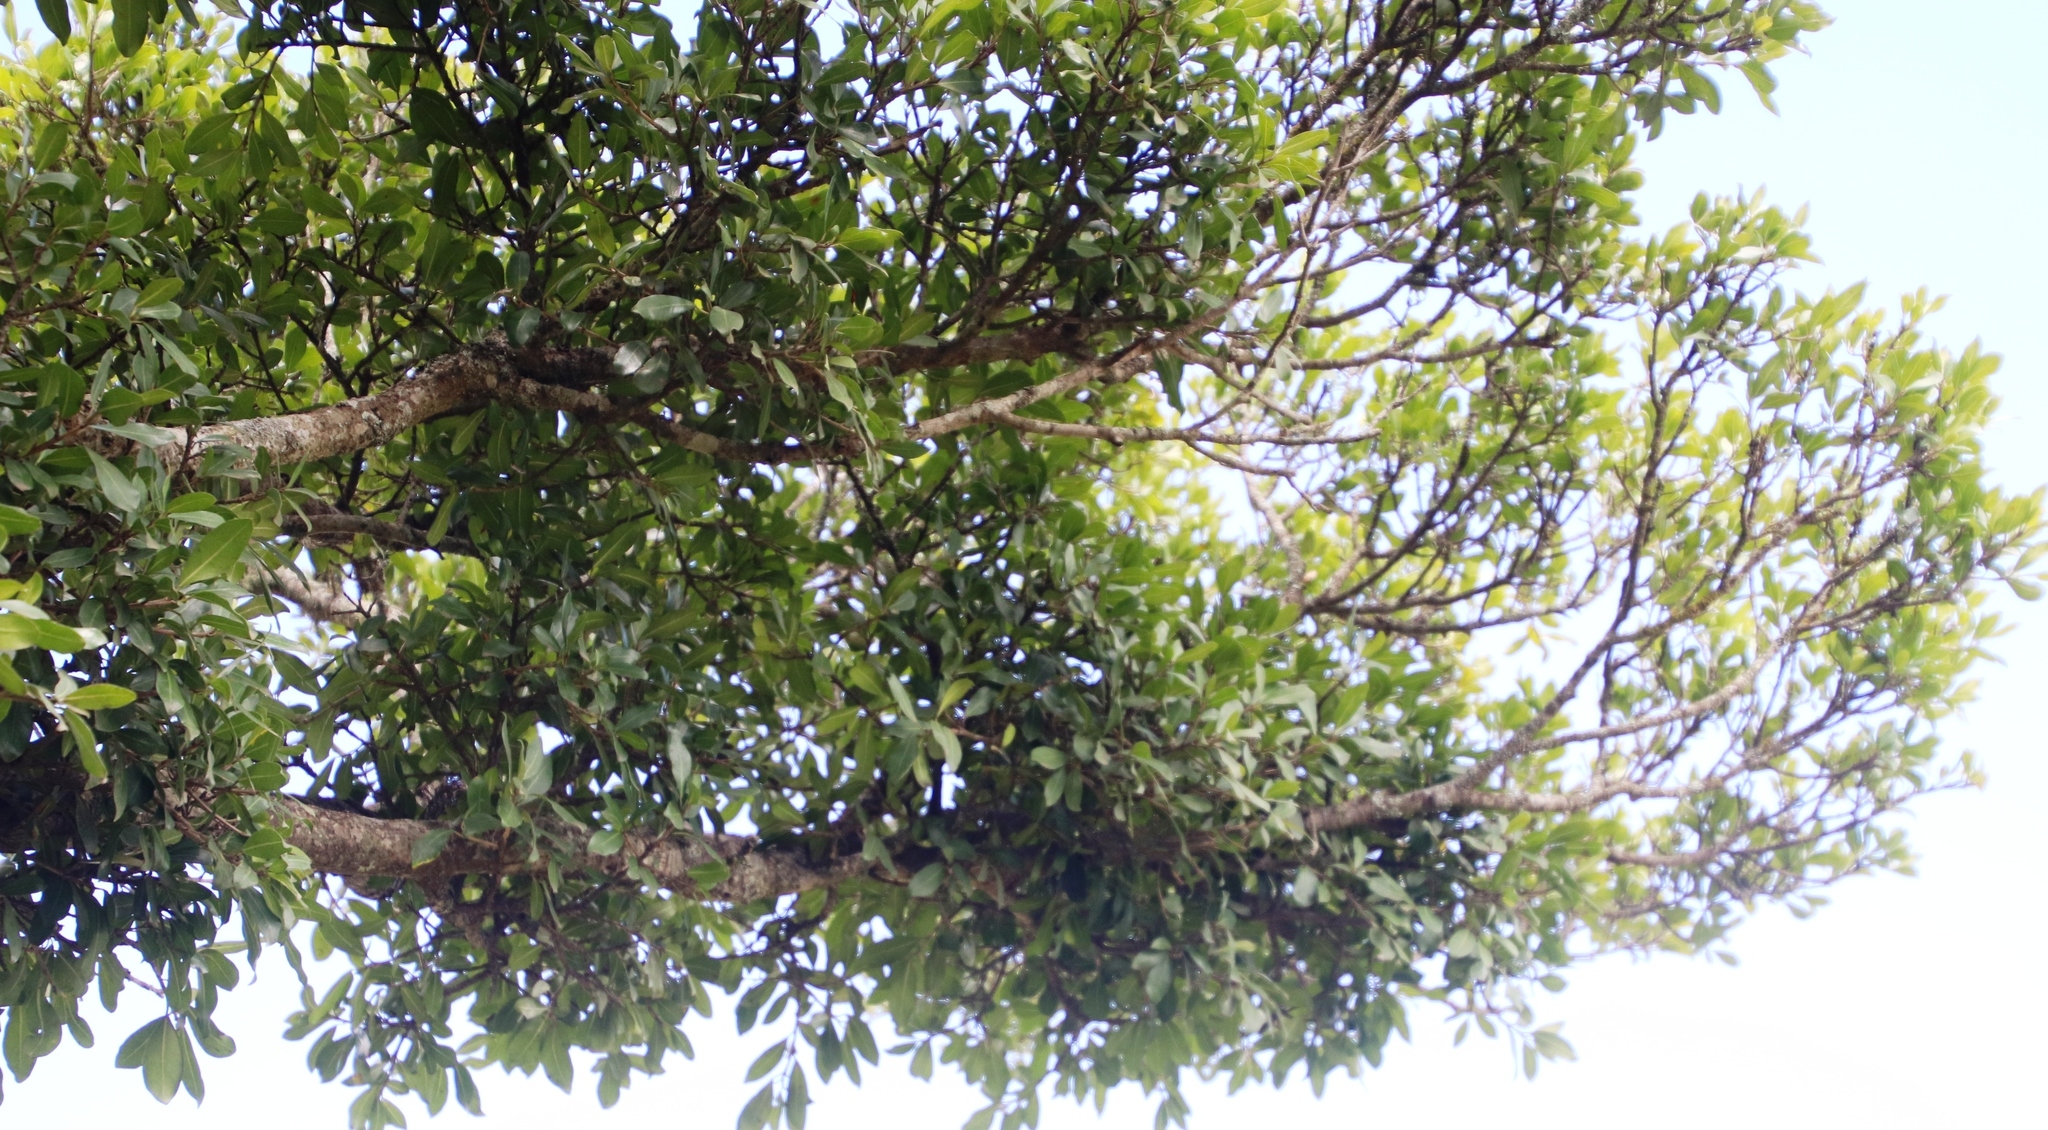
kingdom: Plantae
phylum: Tracheophyta
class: Magnoliopsida
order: Rosales
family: Moraceae
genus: Ficus
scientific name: Ficus thonningii
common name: Fig
